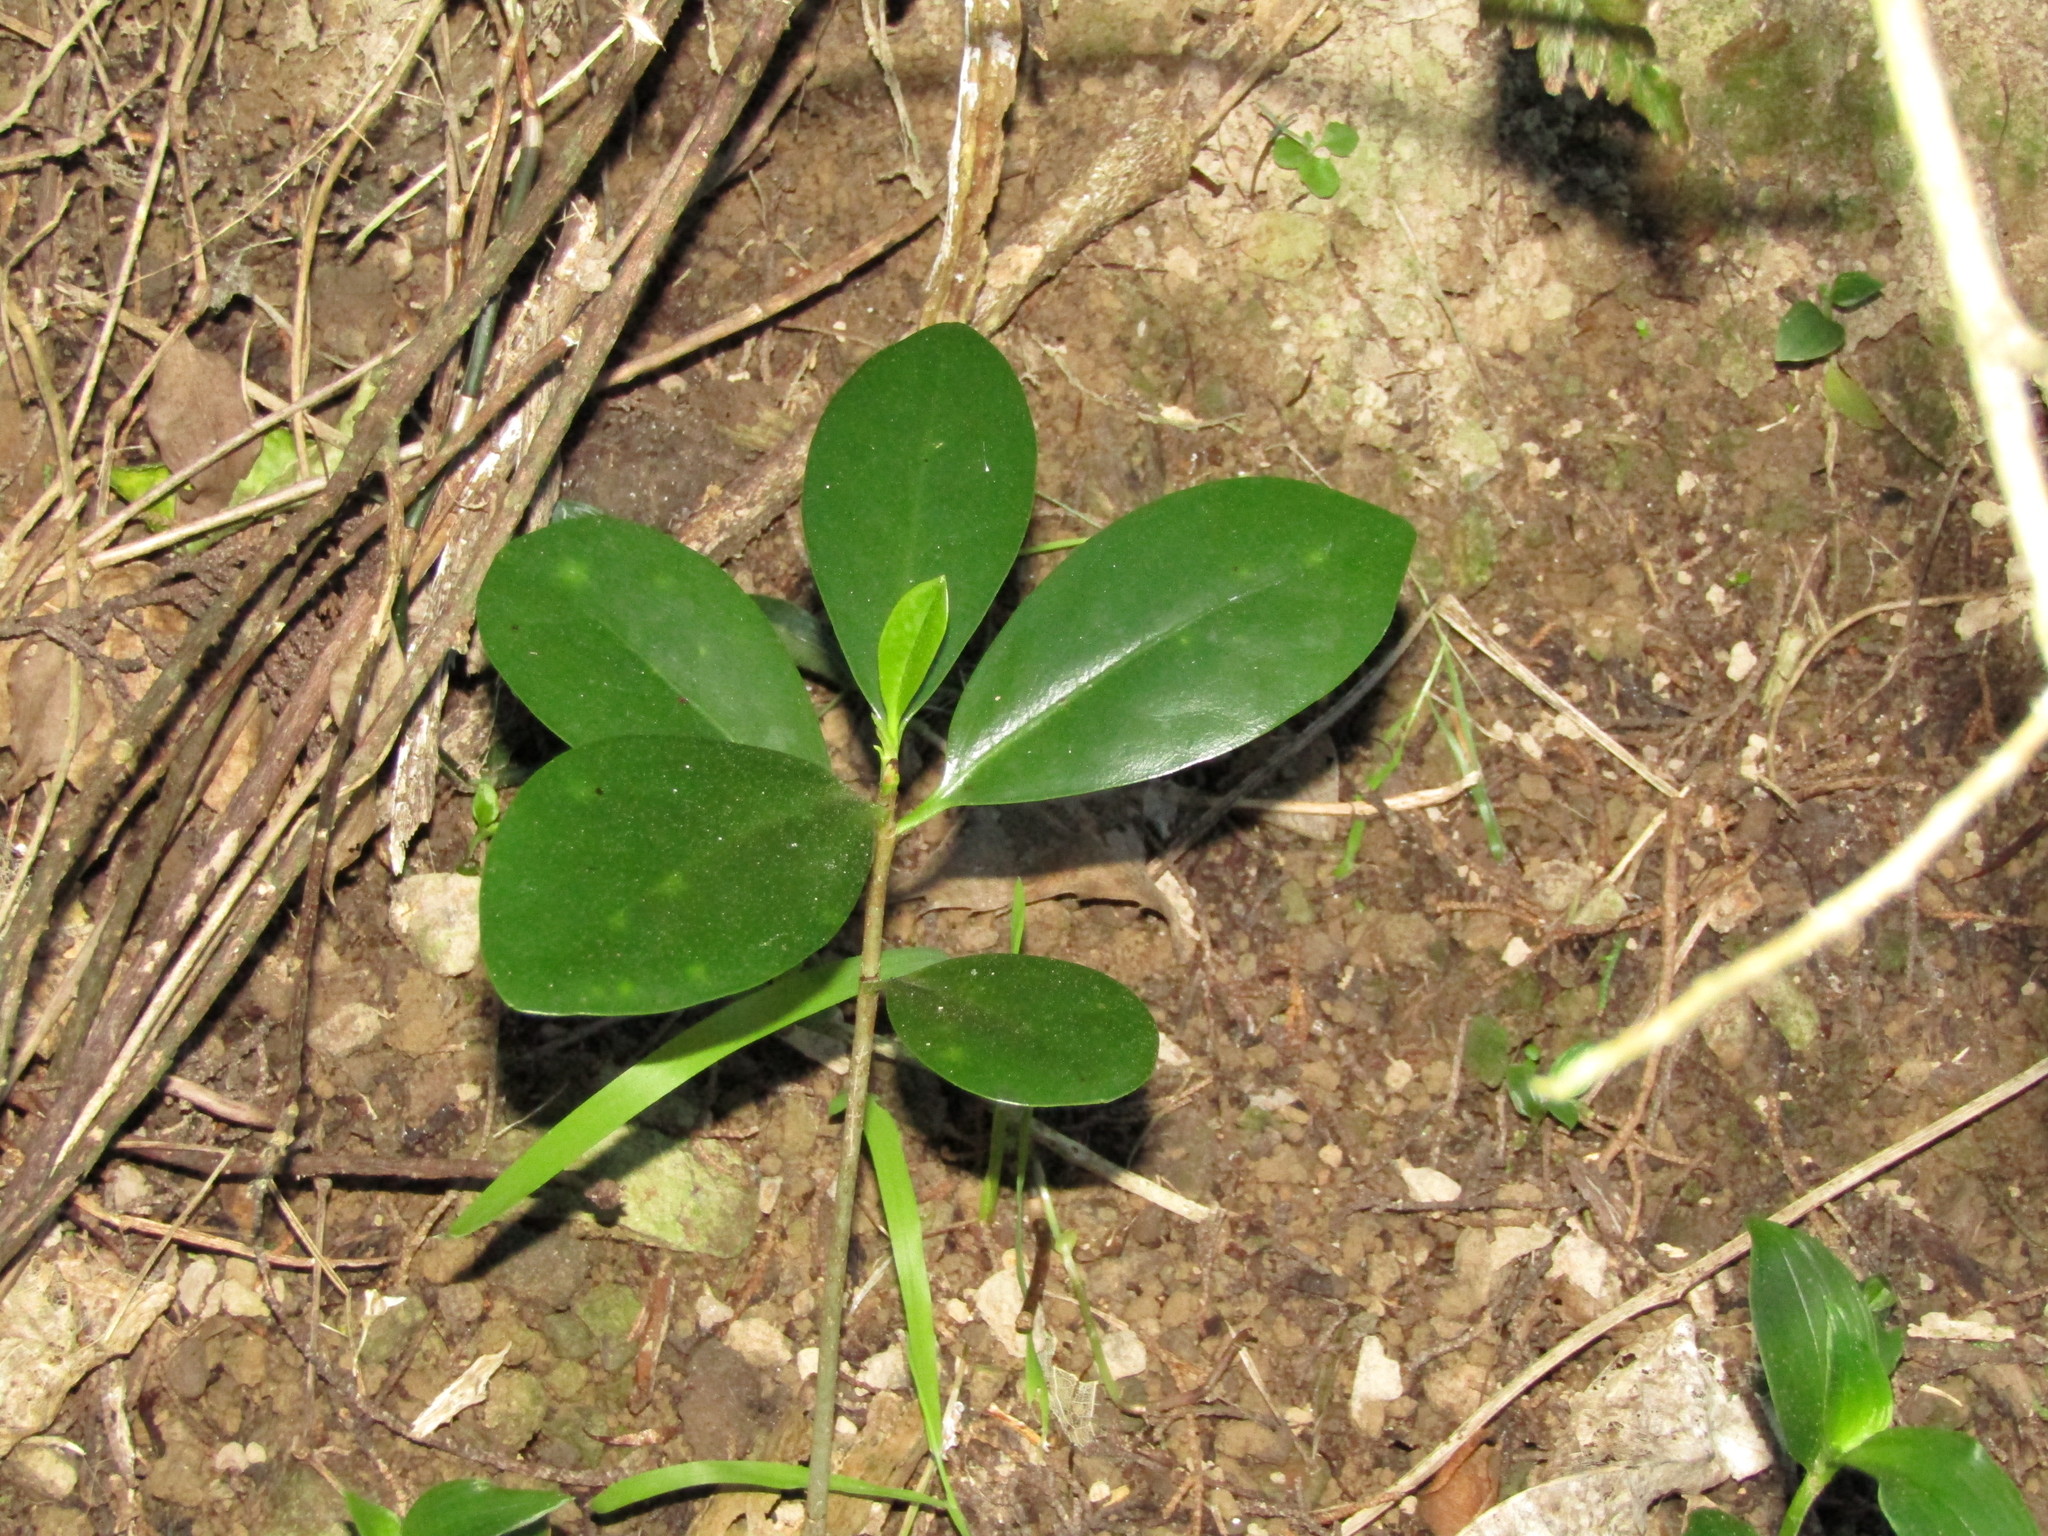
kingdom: Plantae
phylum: Tracheophyta
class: Magnoliopsida
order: Cucurbitales
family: Corynocarpaceae
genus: Corynocarpus
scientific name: Corynocarpus laevigatus
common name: New zealand laurel
